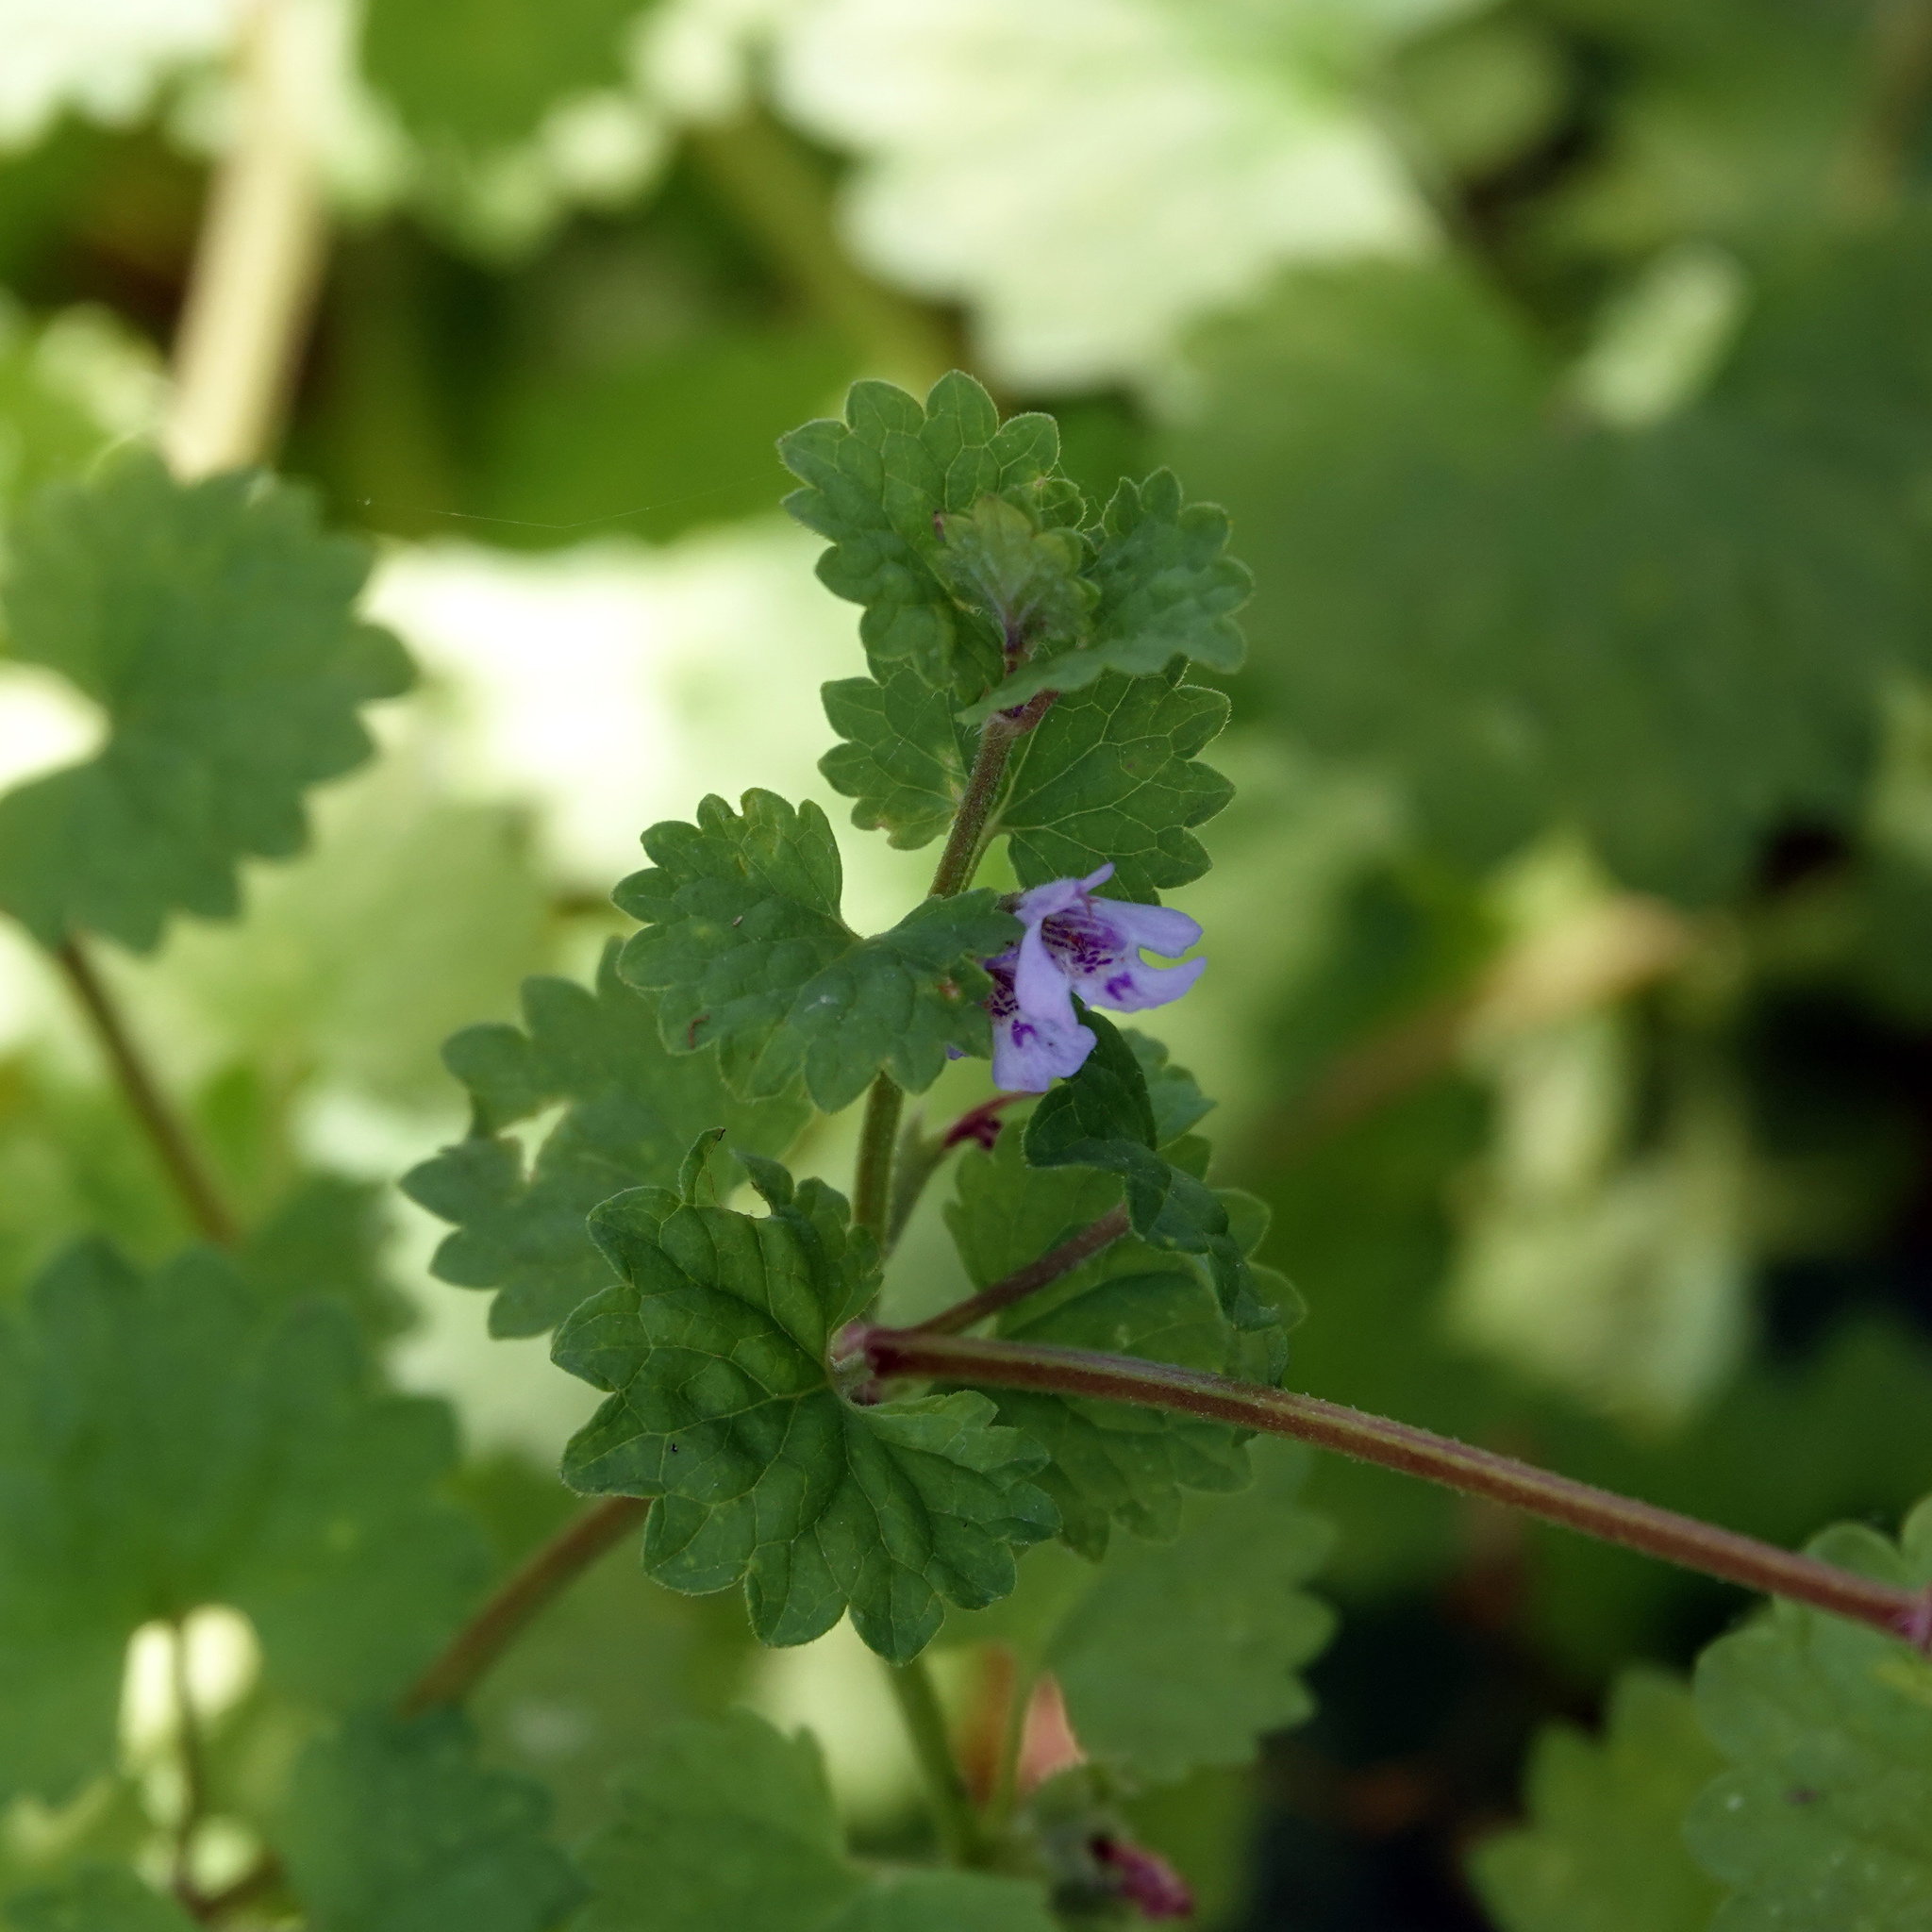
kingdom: Plantae
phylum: Tracheophyta
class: Magnoliopsida
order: Lamiales
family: Lamiaceae
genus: Glechoma
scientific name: Glechoma hederacea
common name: Ground ivy
